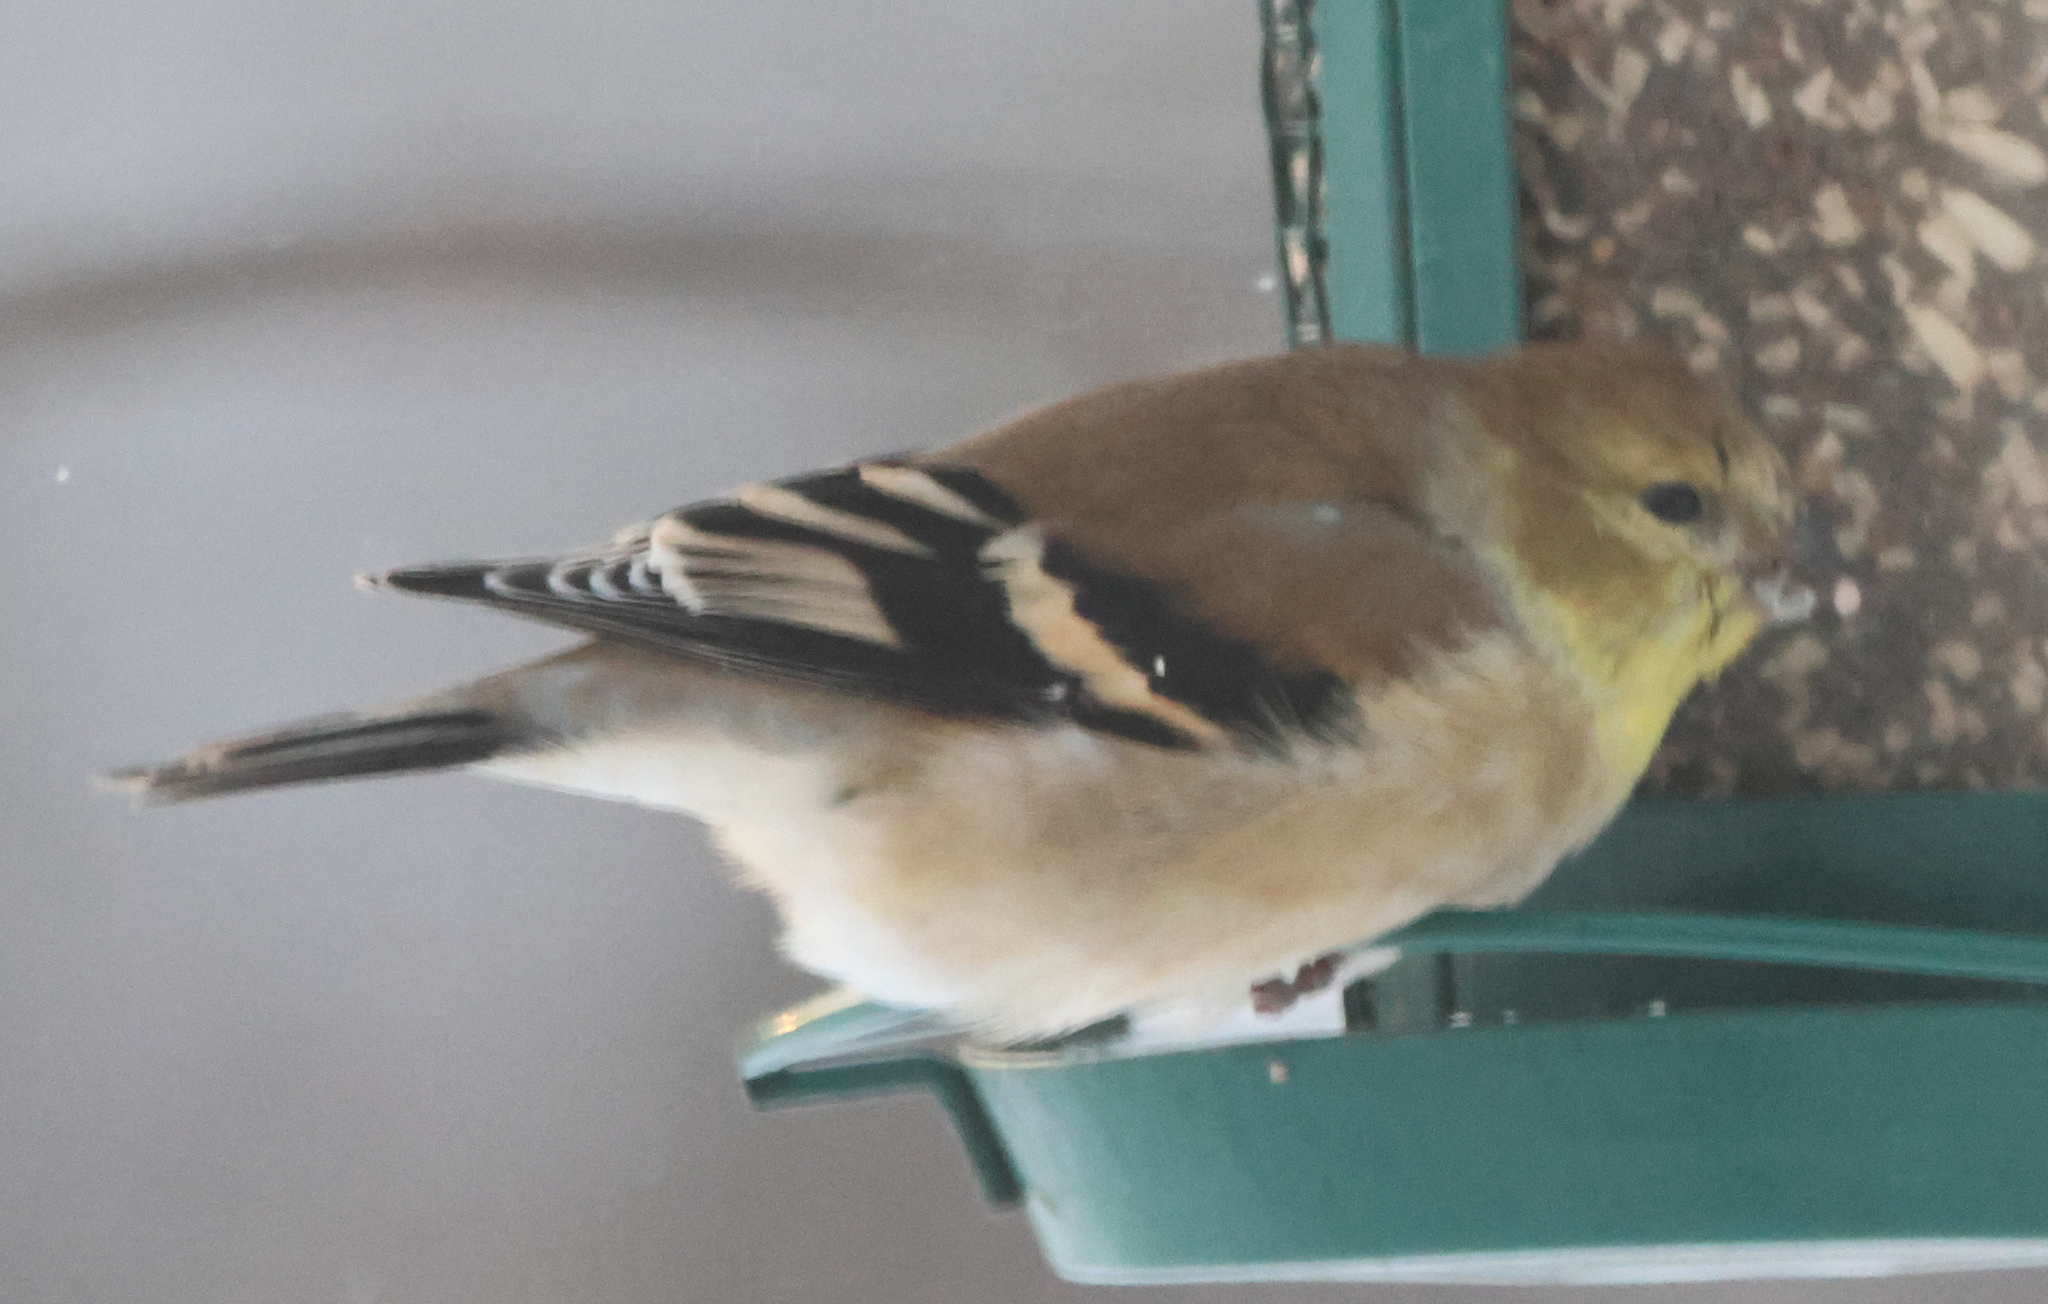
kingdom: Animalia
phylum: Chordata
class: Aves
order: Passeriformes
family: Fringillidae
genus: Spinus
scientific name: Spinus tristis
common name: American goldfinch
